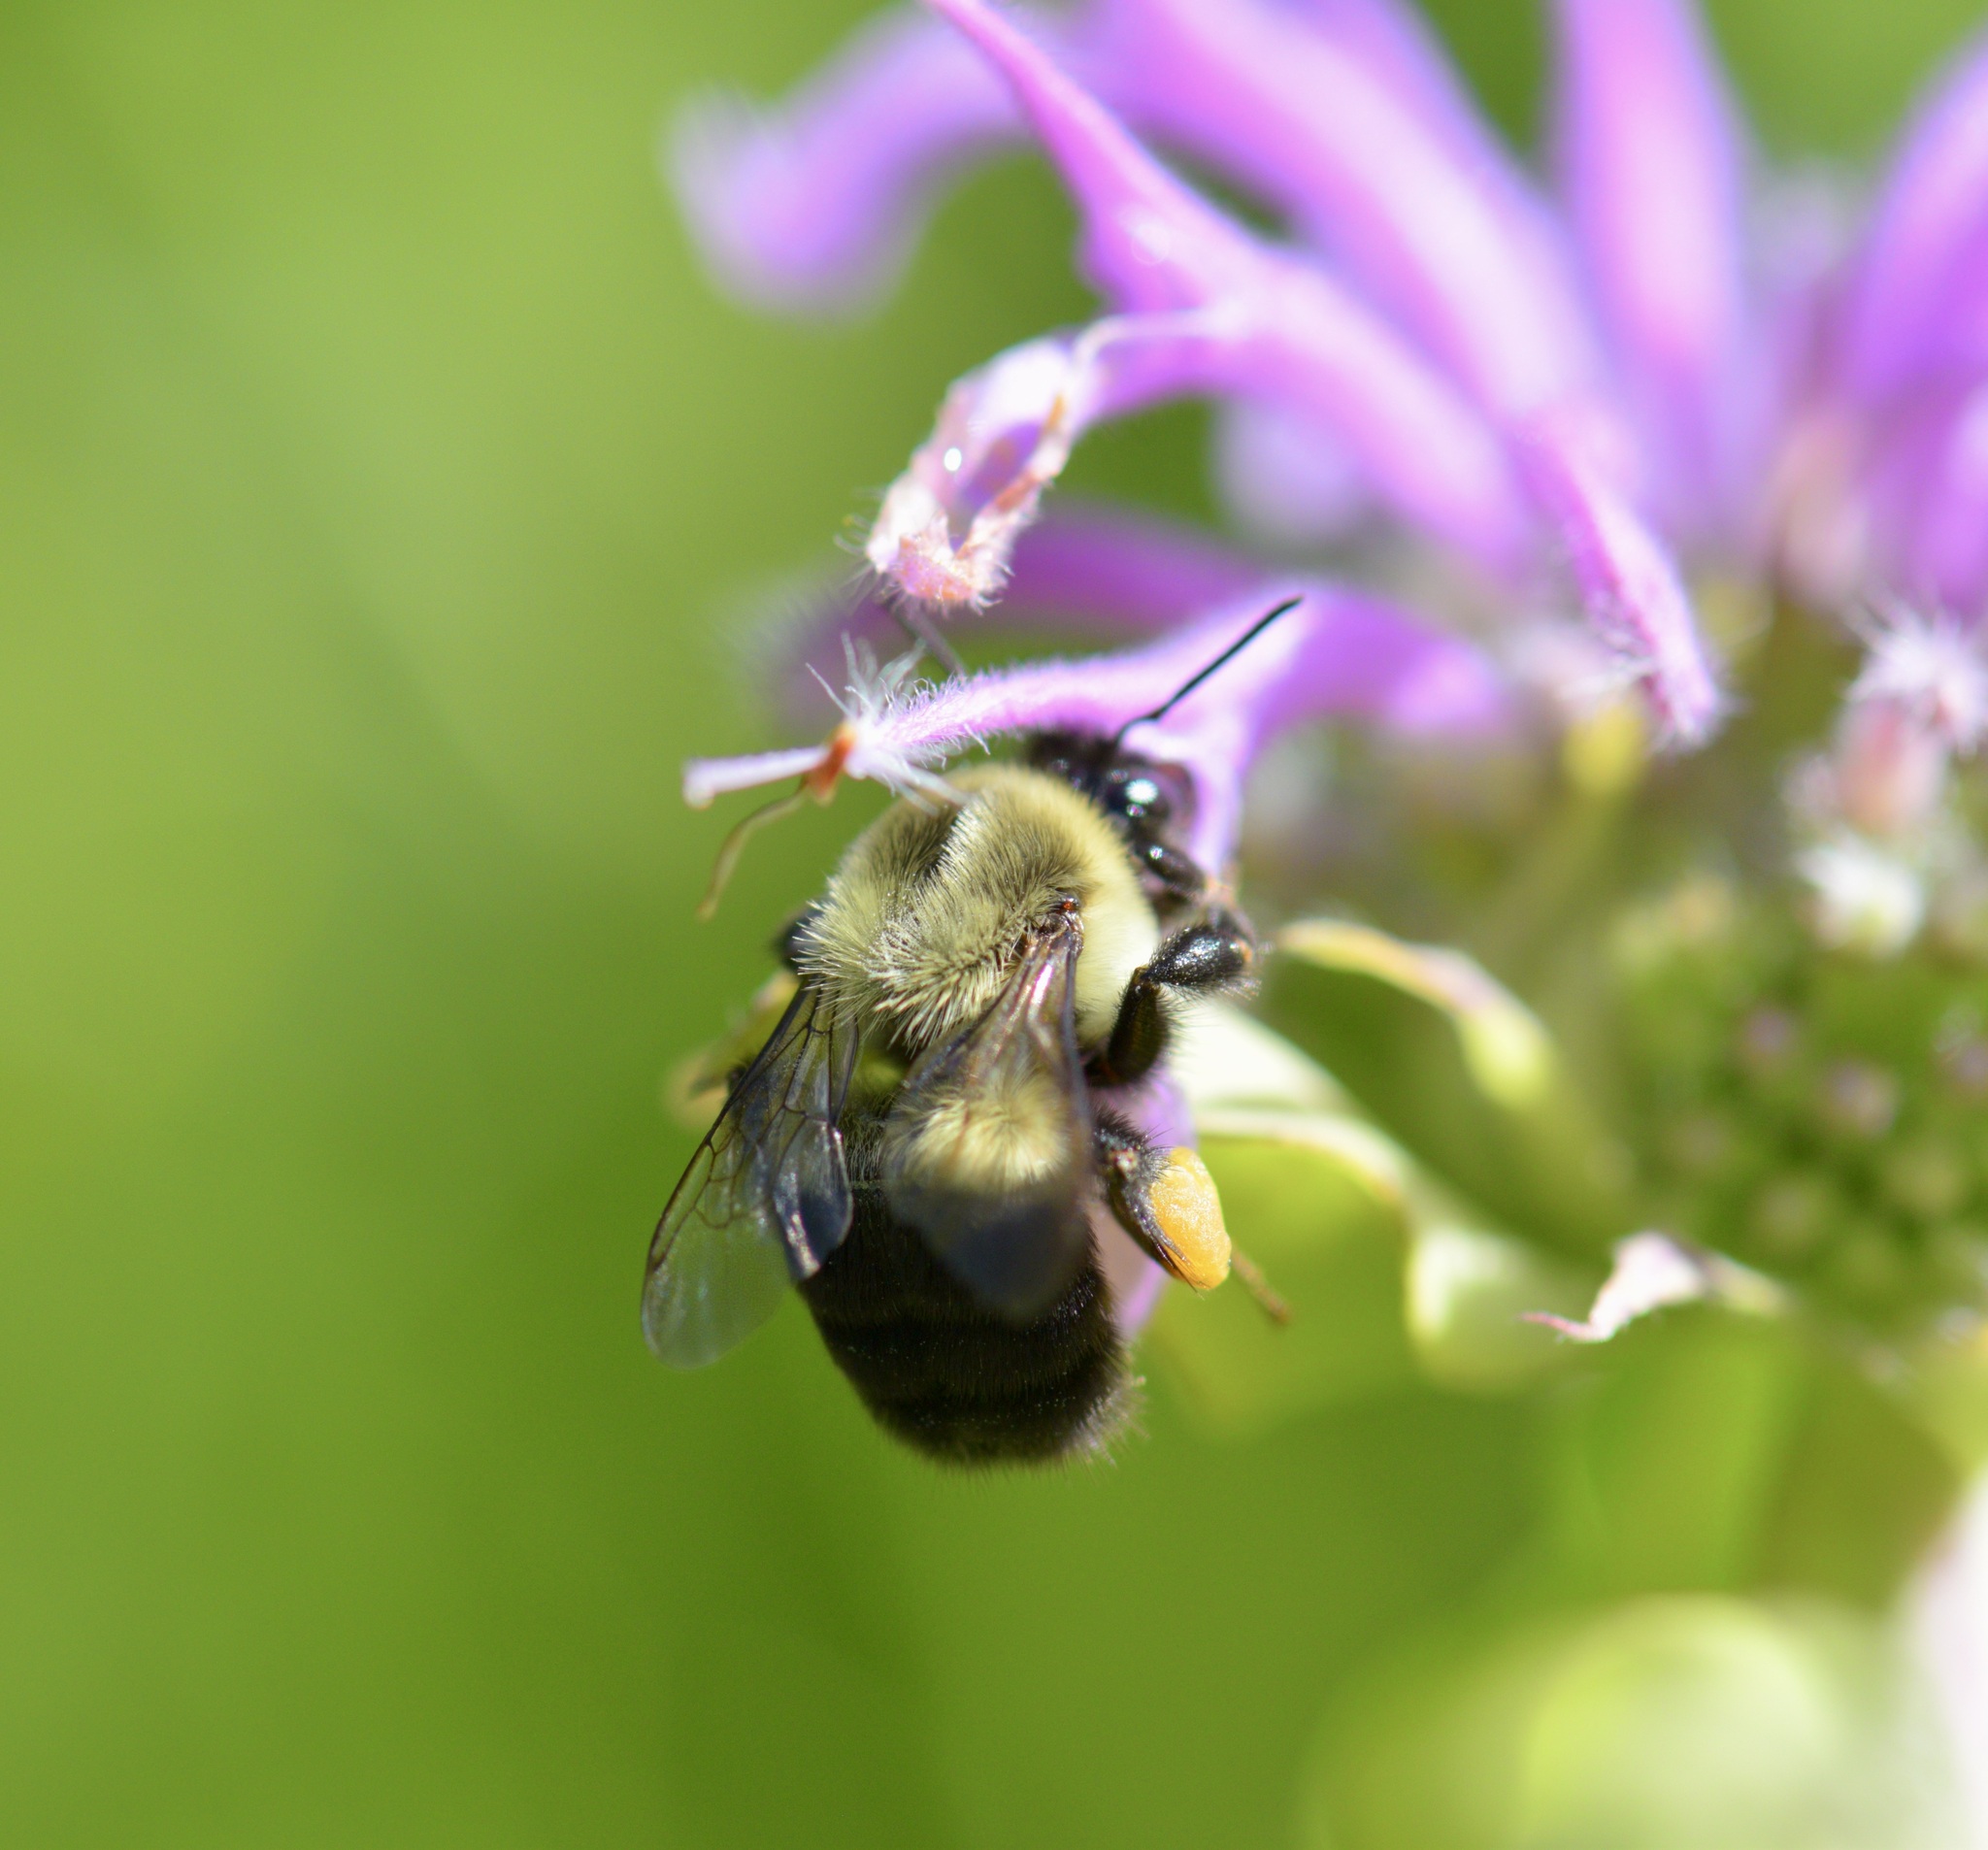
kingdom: Animalia
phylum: Arthropoda
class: Insecta
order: Hymenoptera
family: Apidae
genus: Bombus
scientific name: Bombus impatiens
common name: Common eastern bumble bee
